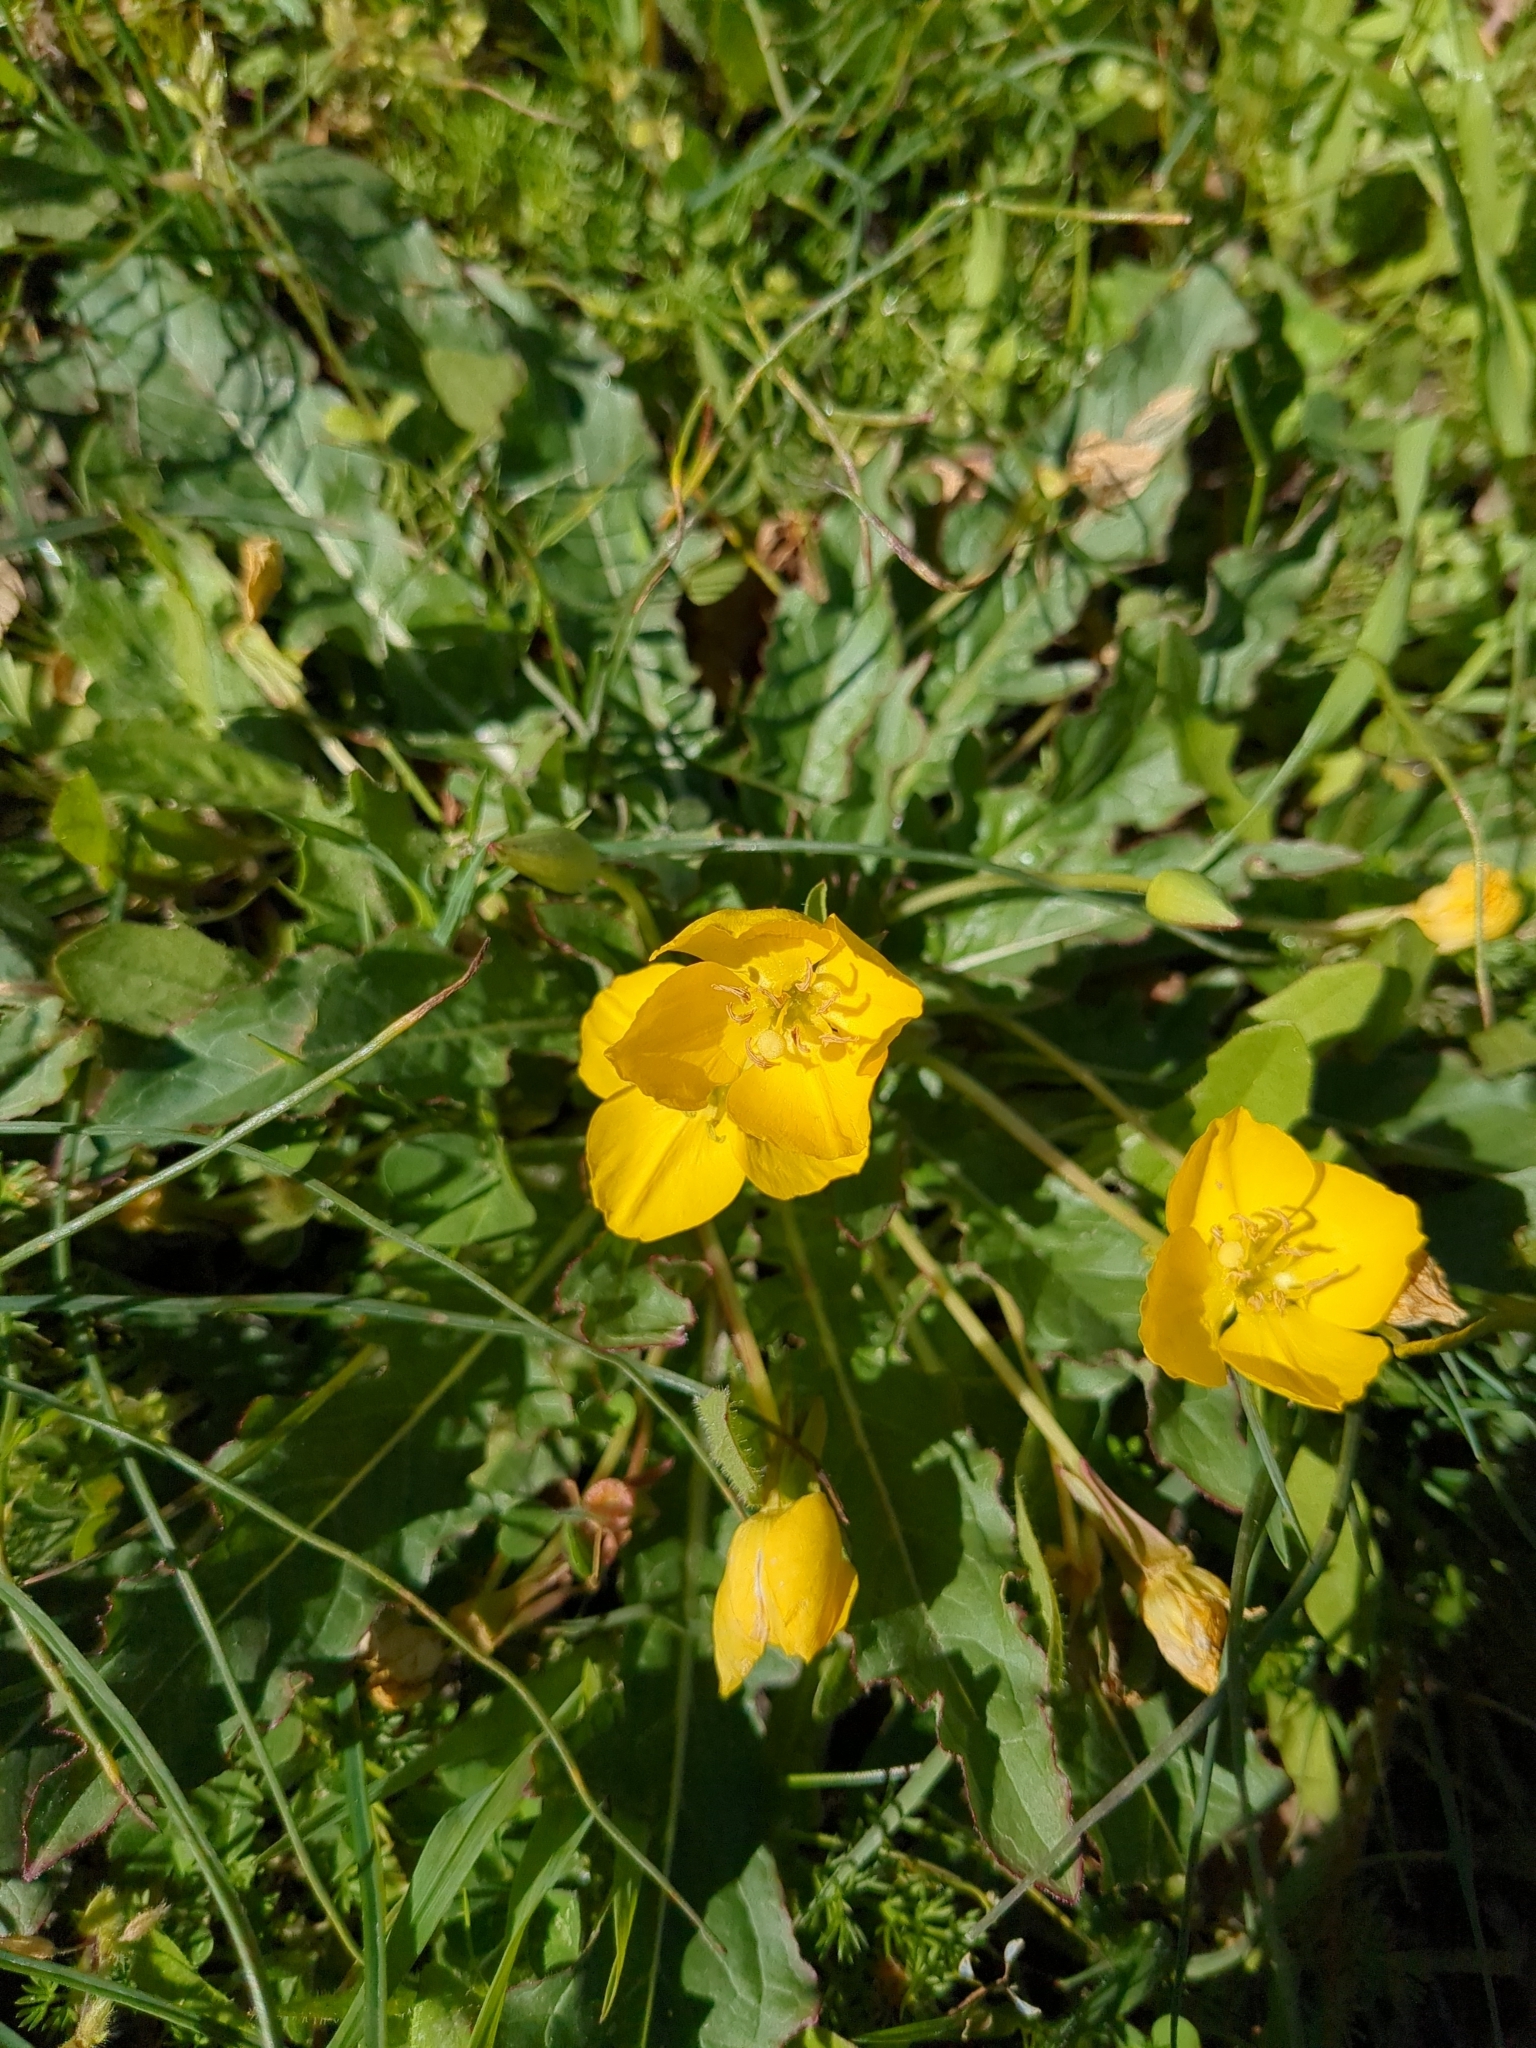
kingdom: Plantae
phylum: Tracheophyta
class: Magnoliopsida
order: Myrtales
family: Onagraceae
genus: Taraxia
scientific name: Taraxia ovata
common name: Goldeneggs
